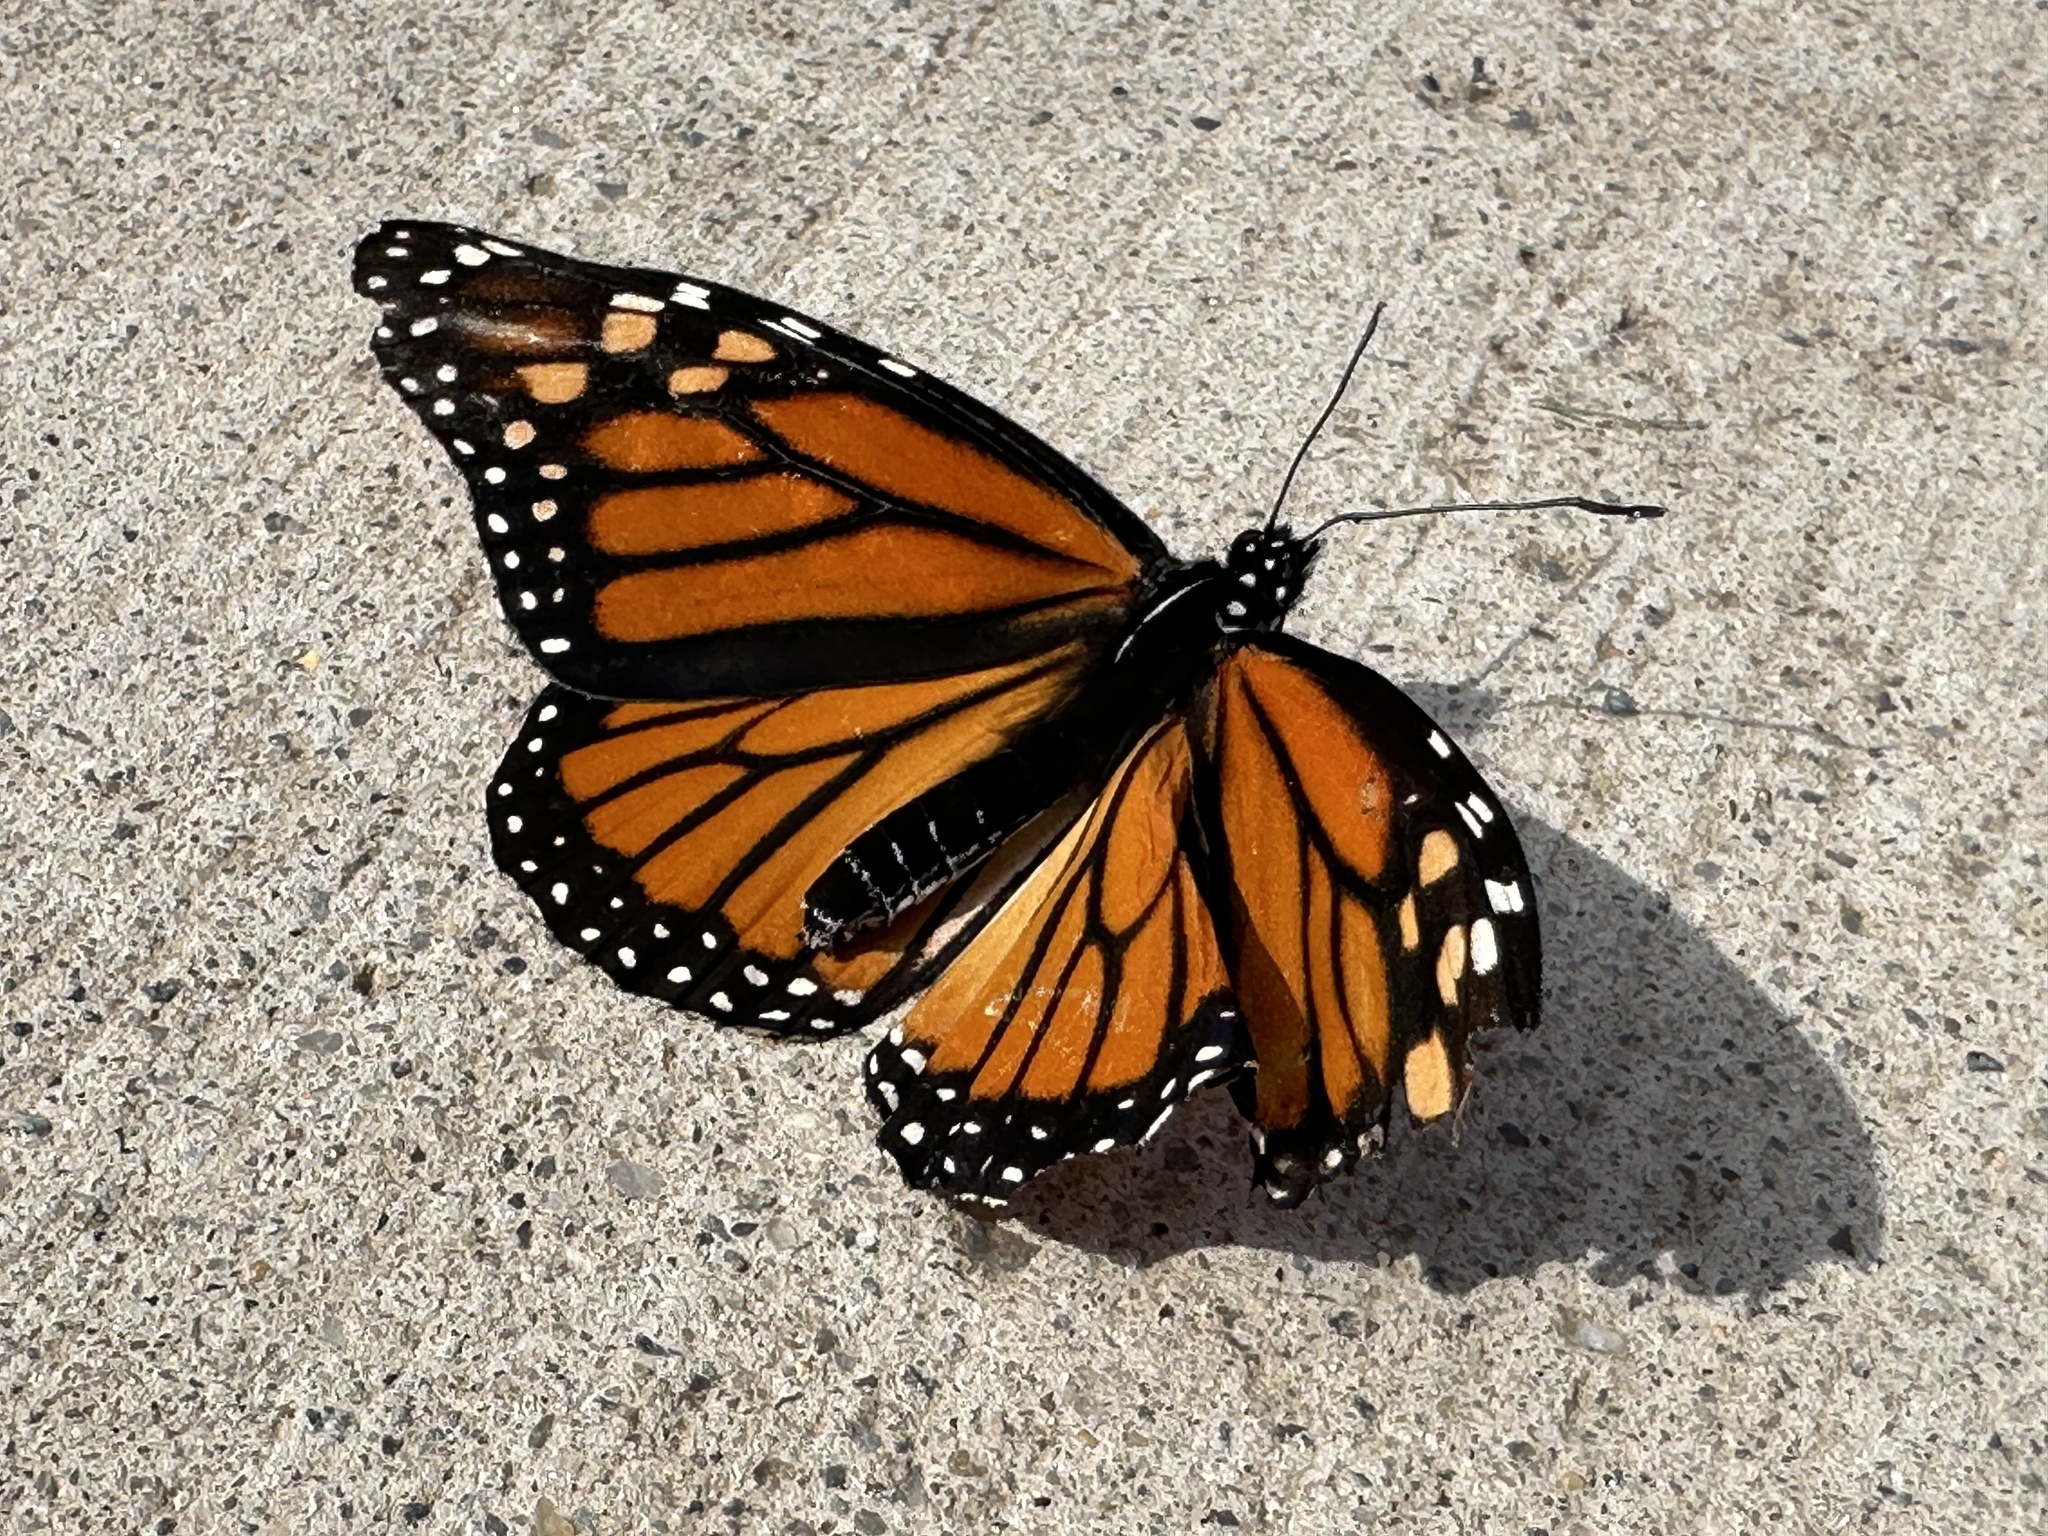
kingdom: Animalia
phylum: Arthropoda
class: Insecta
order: Lepidoptera
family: Nymphalidae
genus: Danaus
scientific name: Danaus plexippus
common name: Monarch
